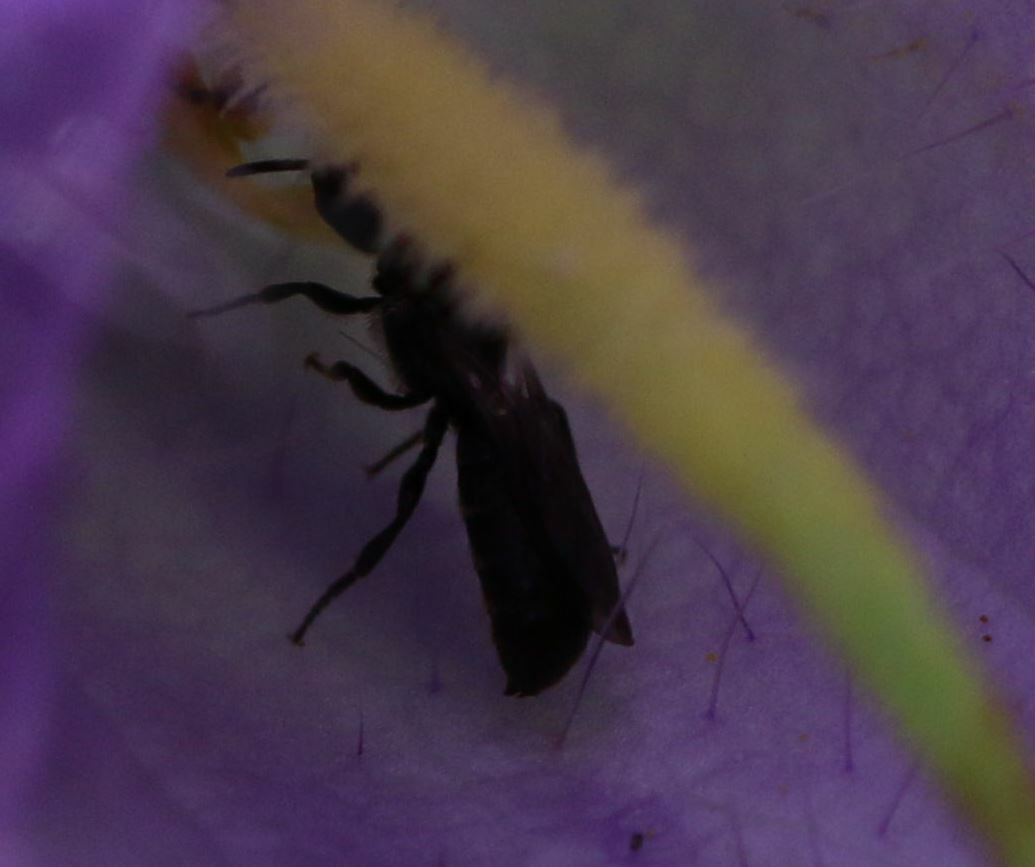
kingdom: Animalia
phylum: Arthropoda
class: Insecta
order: Hymenoptera
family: Megachilidae
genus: Chelostoma
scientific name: Chelostoma campanularum
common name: Small scissor bee
